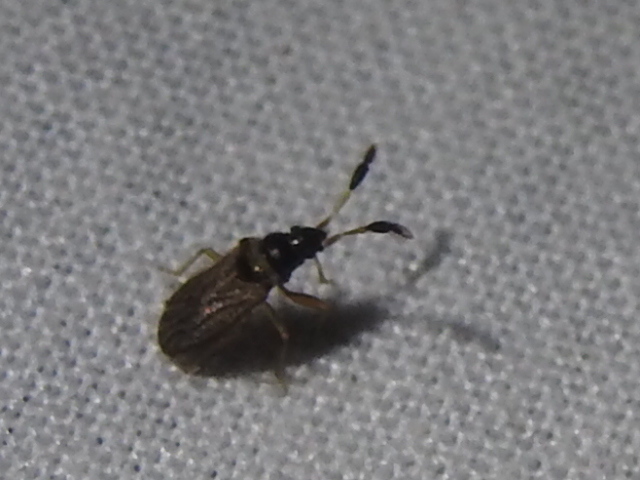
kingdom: Animalia
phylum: Arthropoda
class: Insecta
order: Hemiptera
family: Rhyparochromidae
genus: Ptochiomera
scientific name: Ptochiomera nodosa
